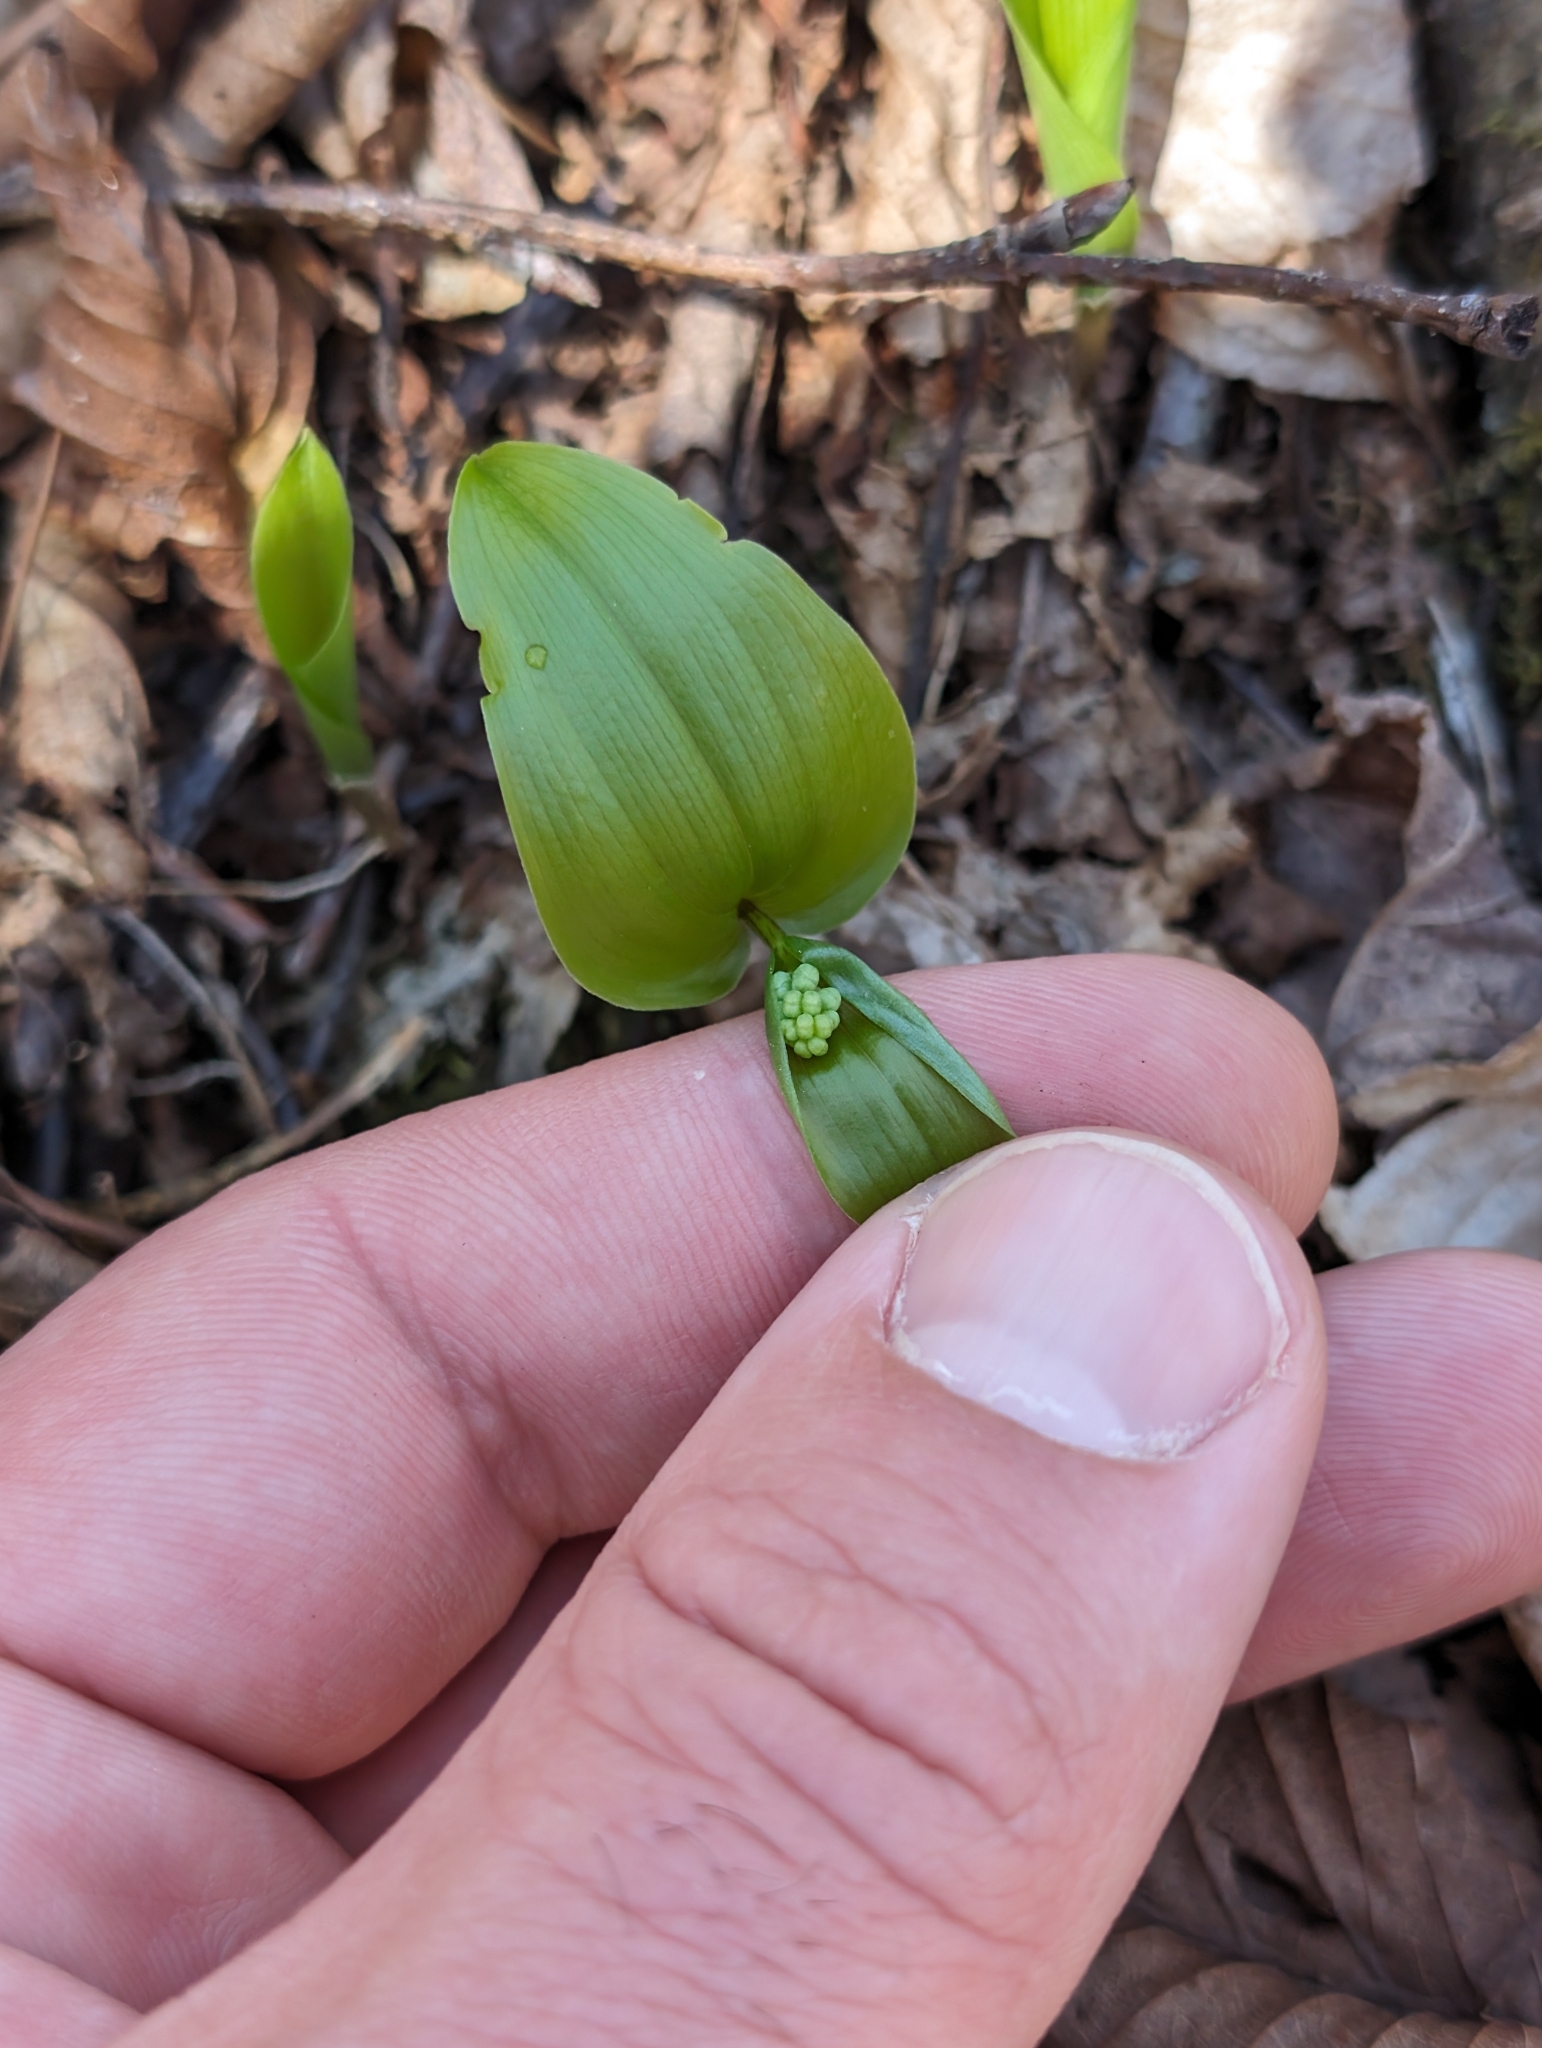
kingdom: Plantae
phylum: Tracheophyta
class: Liliopsida
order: Asparagales
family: Asparagaceae
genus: Maianthemum
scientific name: Maianthemum canadense
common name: False lily-of-the-valley
